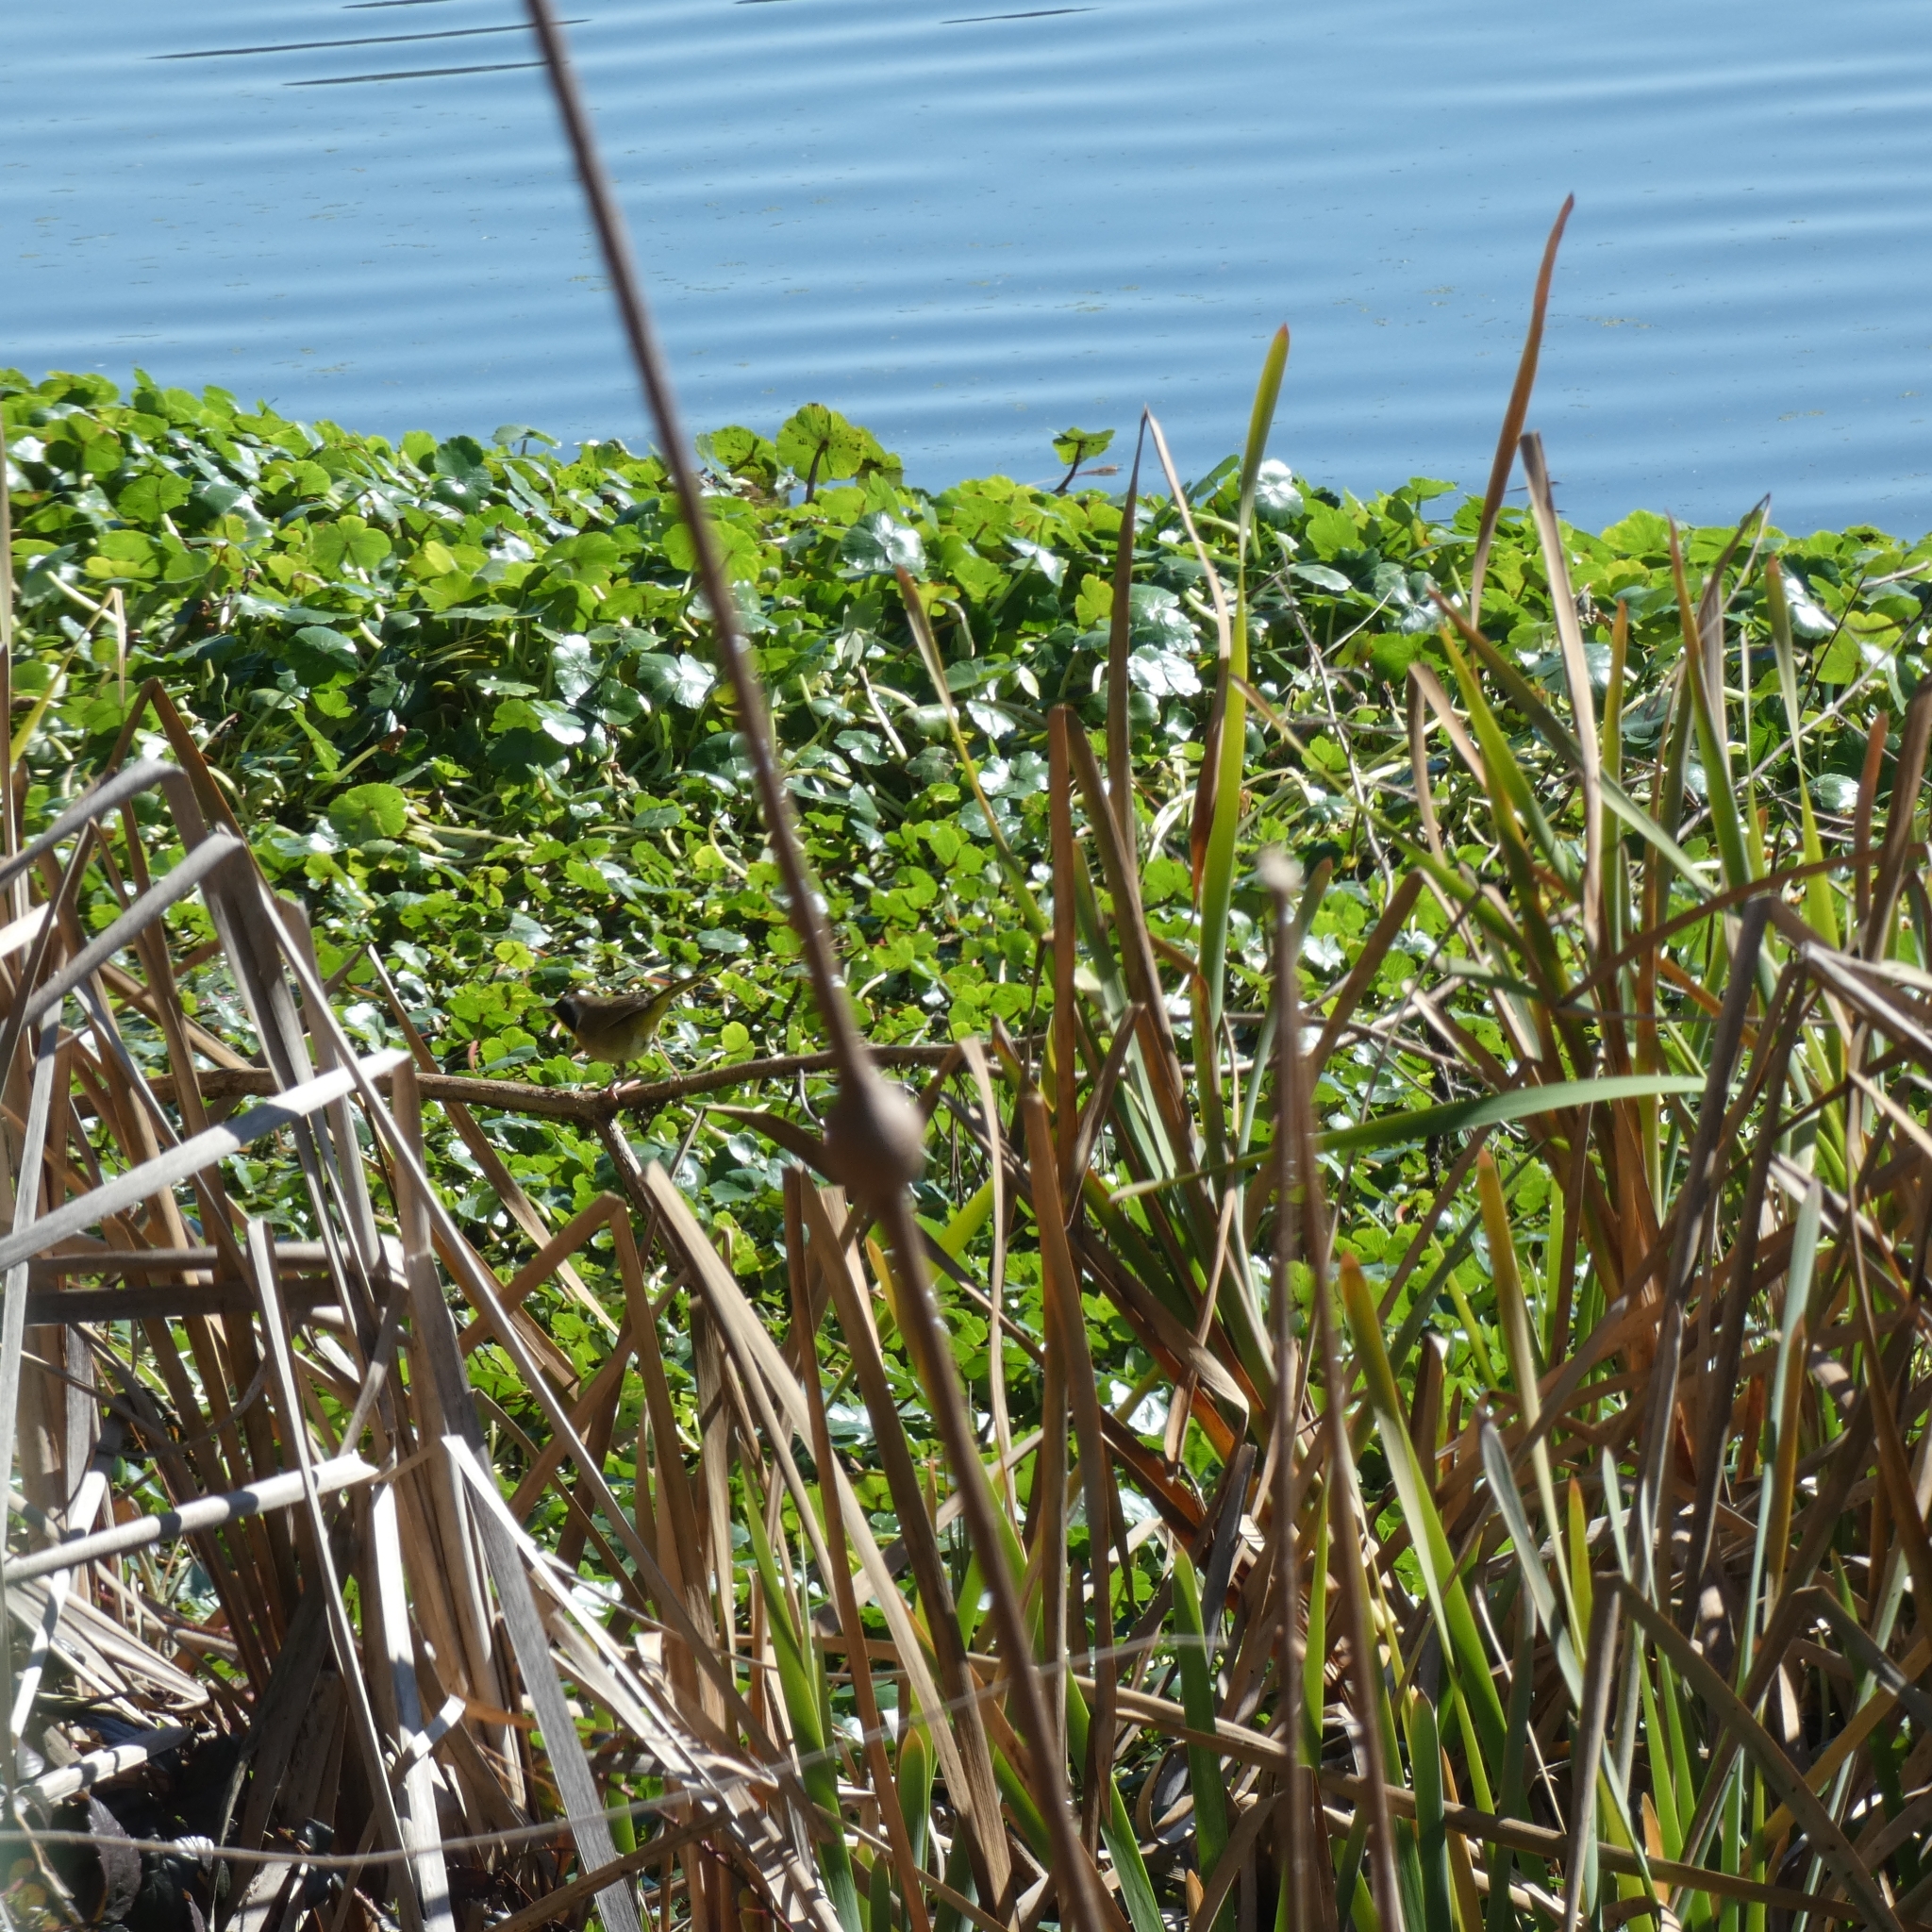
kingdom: Animalia
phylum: Chordata
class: Aves
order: Passeriformes
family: Parulidae
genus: Geothlypis
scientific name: Geothlypis trichas
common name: Common yellowthroat
